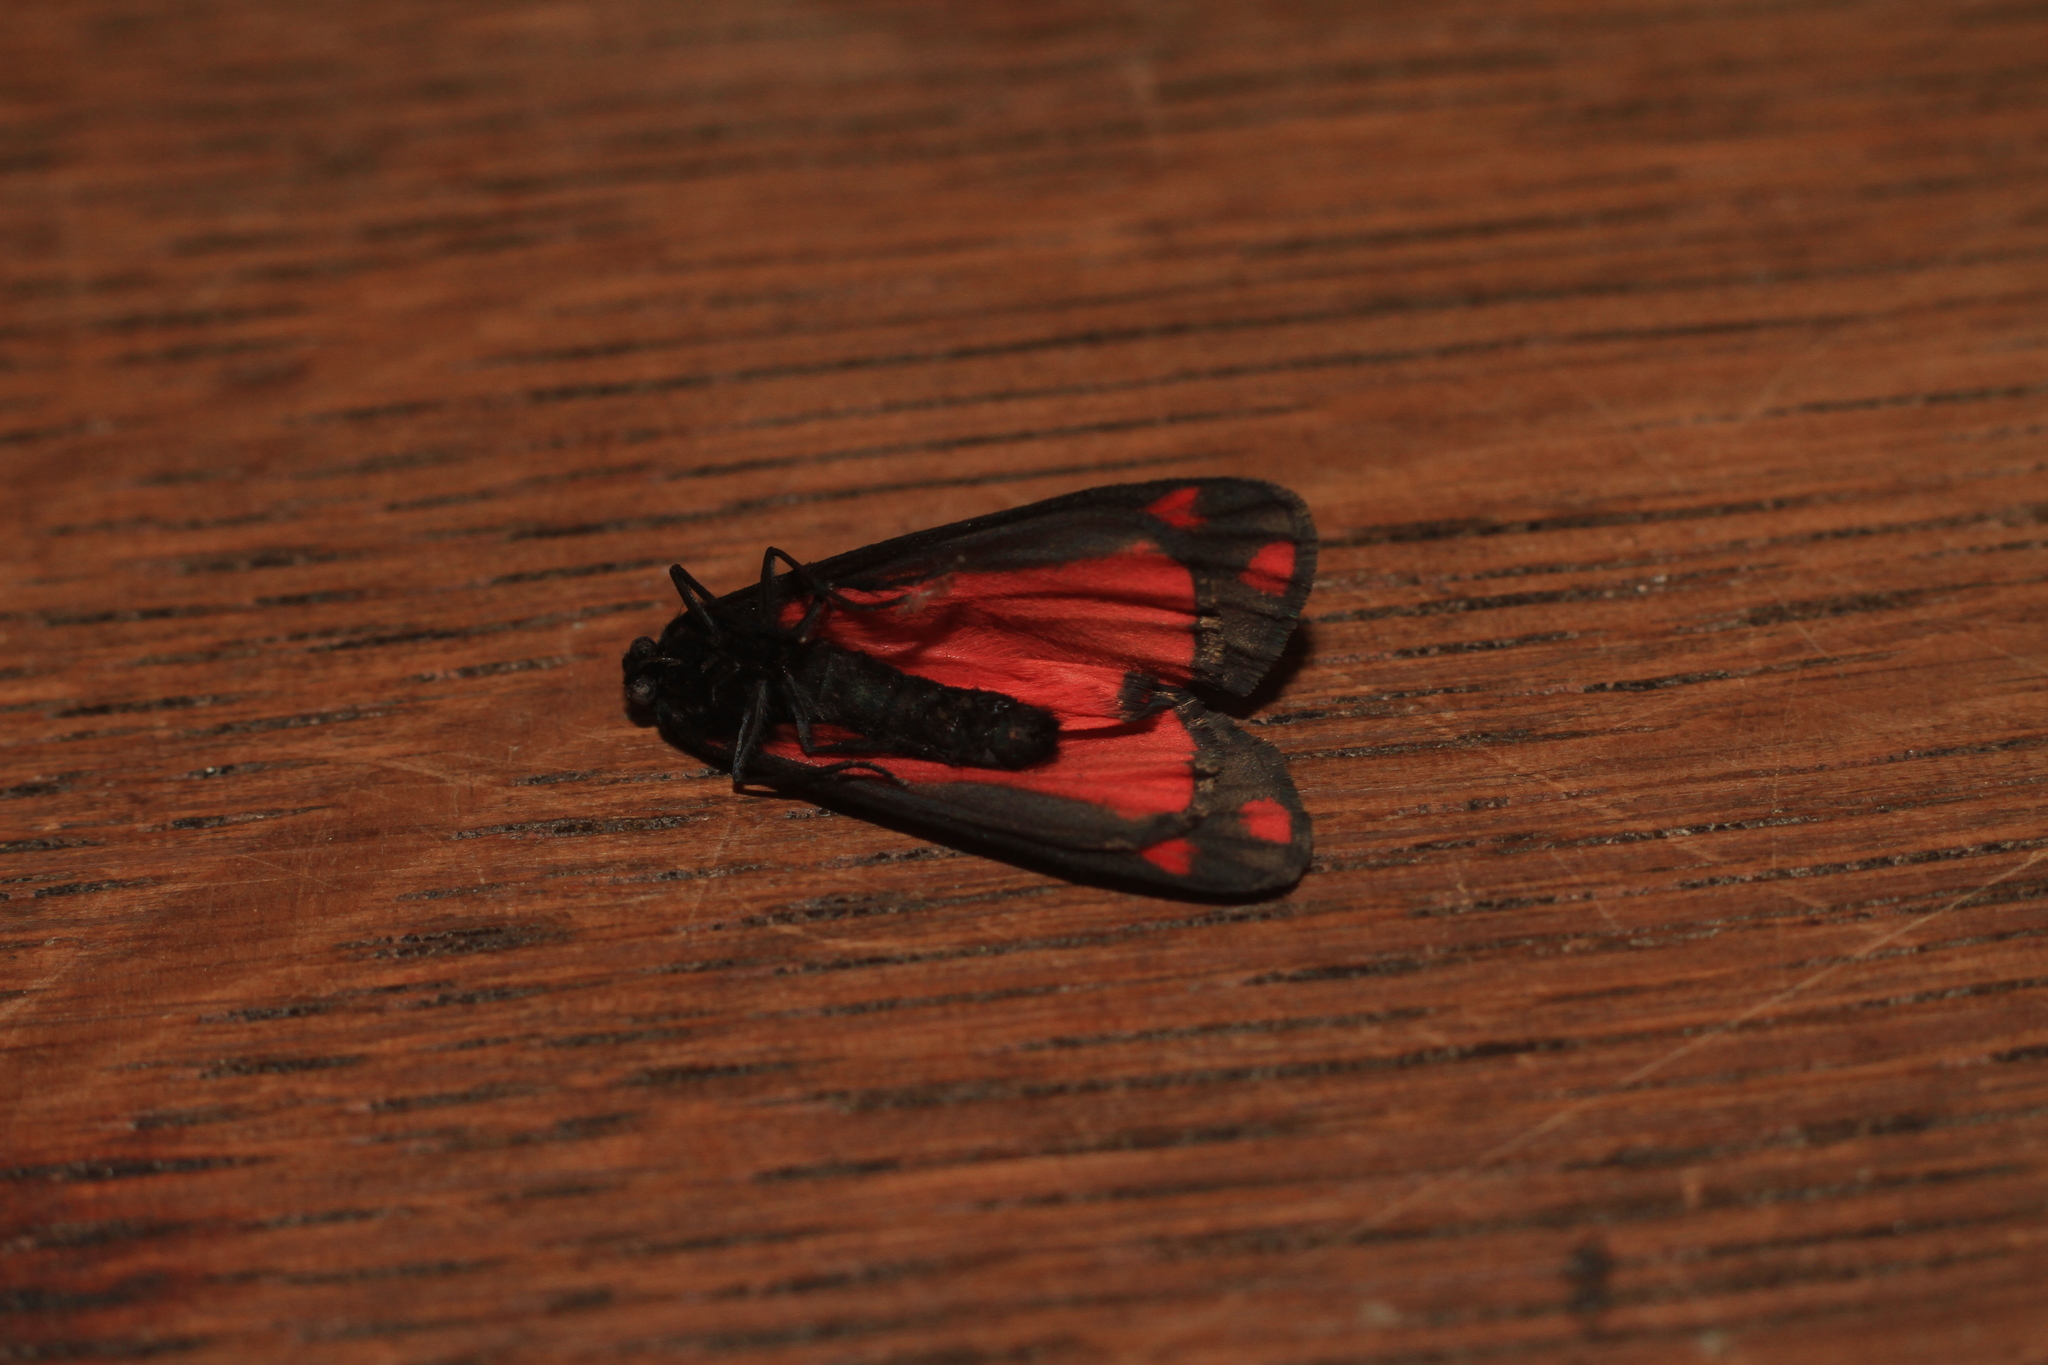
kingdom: Animalia
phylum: Arthropoda
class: Insecta
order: Lepidoptera
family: Erebidae
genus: Tyria
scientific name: Tyria jacobaeae
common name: Cinnabar
